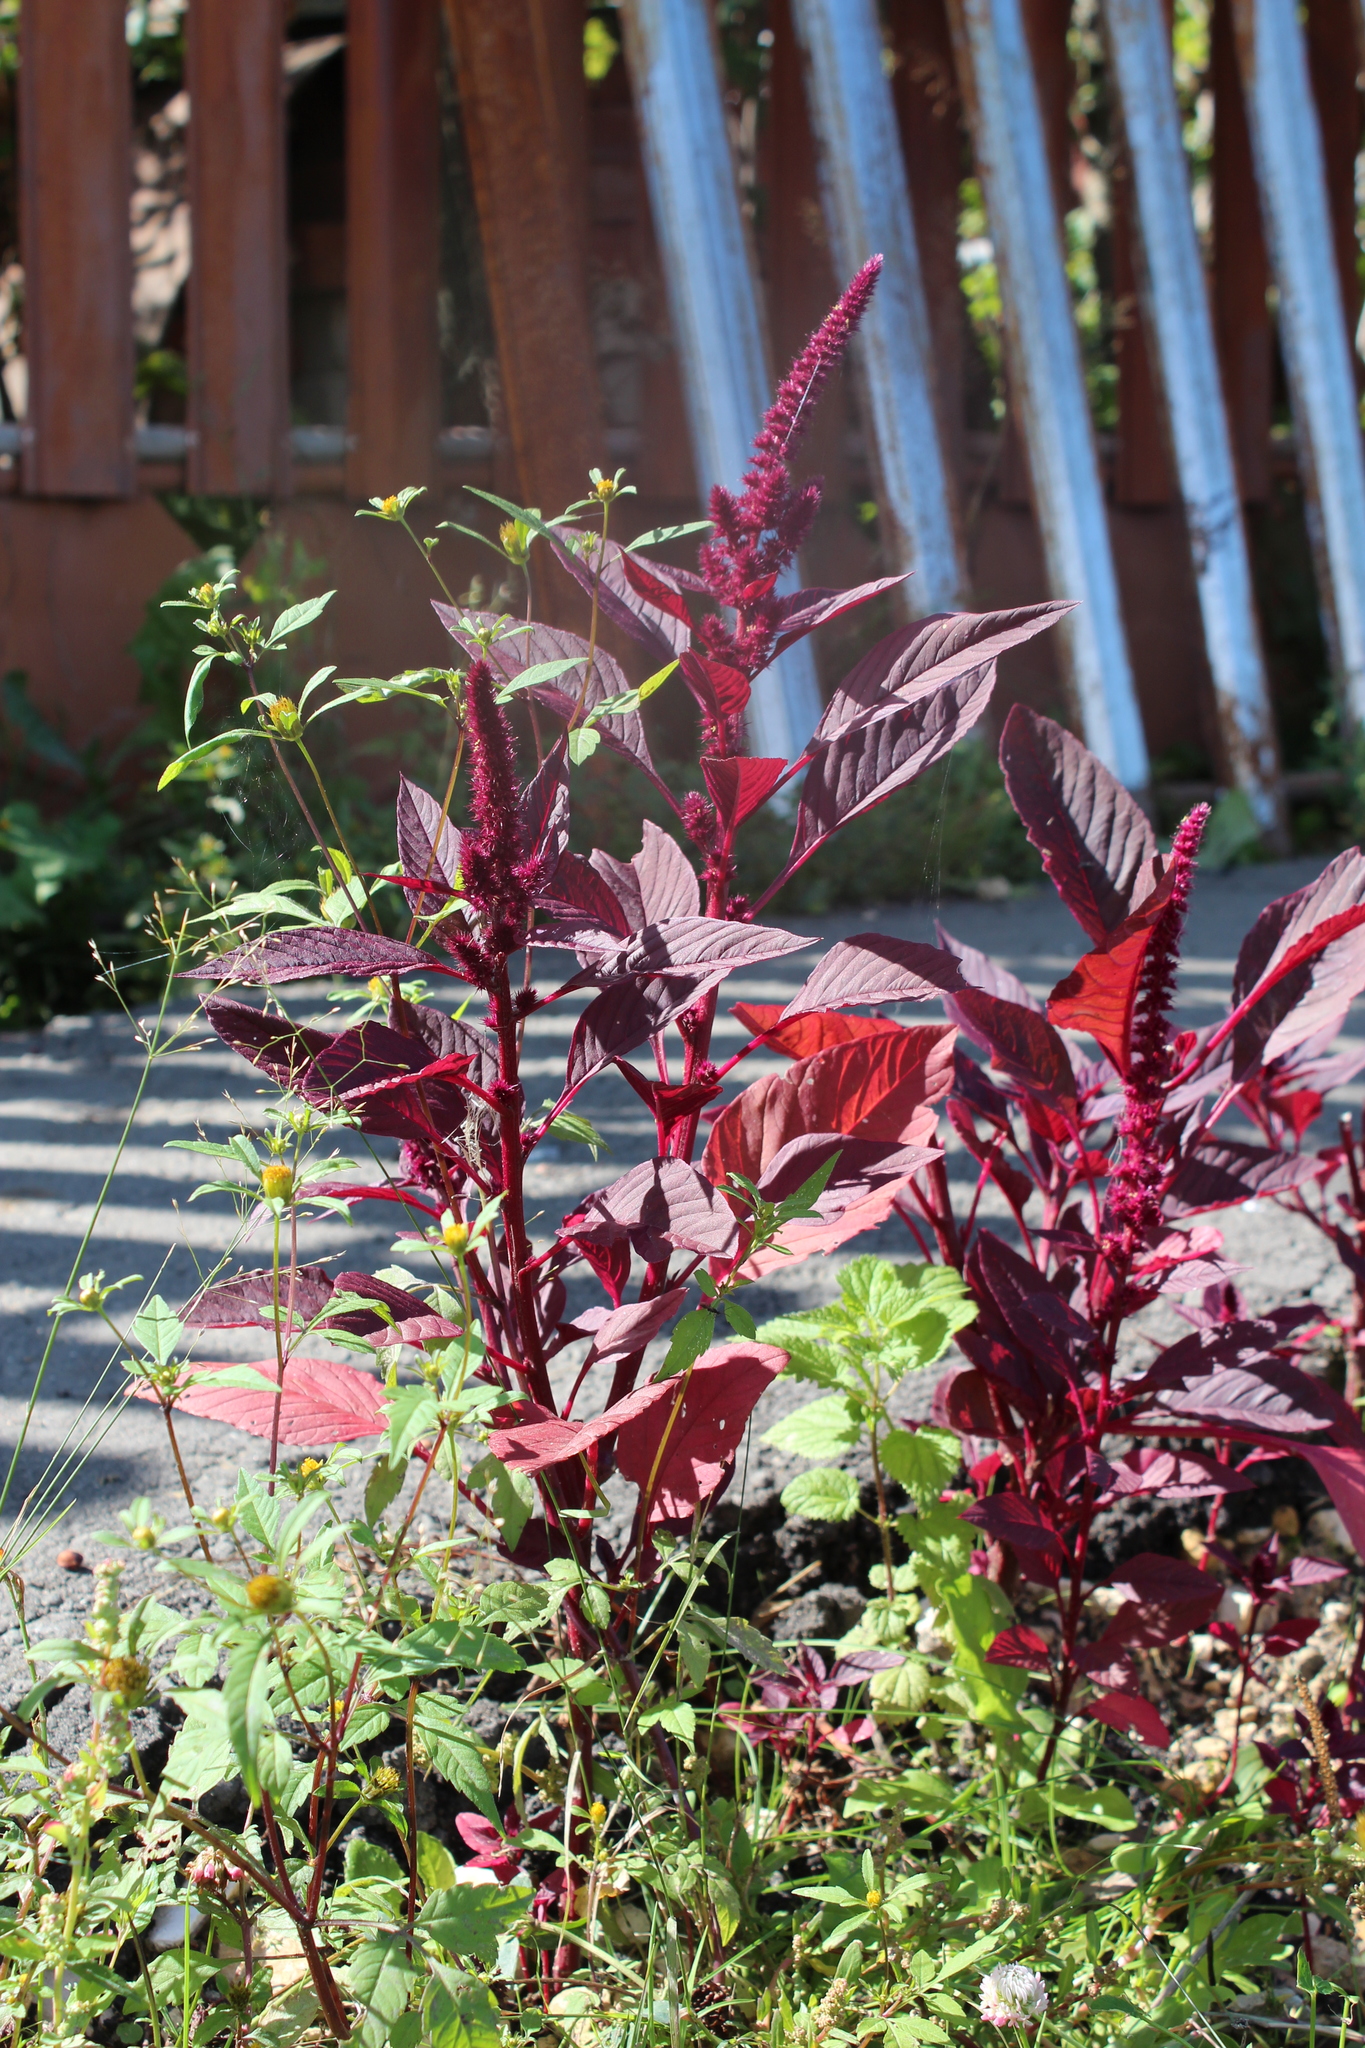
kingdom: Plantae
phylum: Tracheophyta
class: Magnoliopsida
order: Caryophyllales
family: Amaranthaceae
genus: Amaranthus
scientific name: Amaranthus cruentus
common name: Purple amaranth
